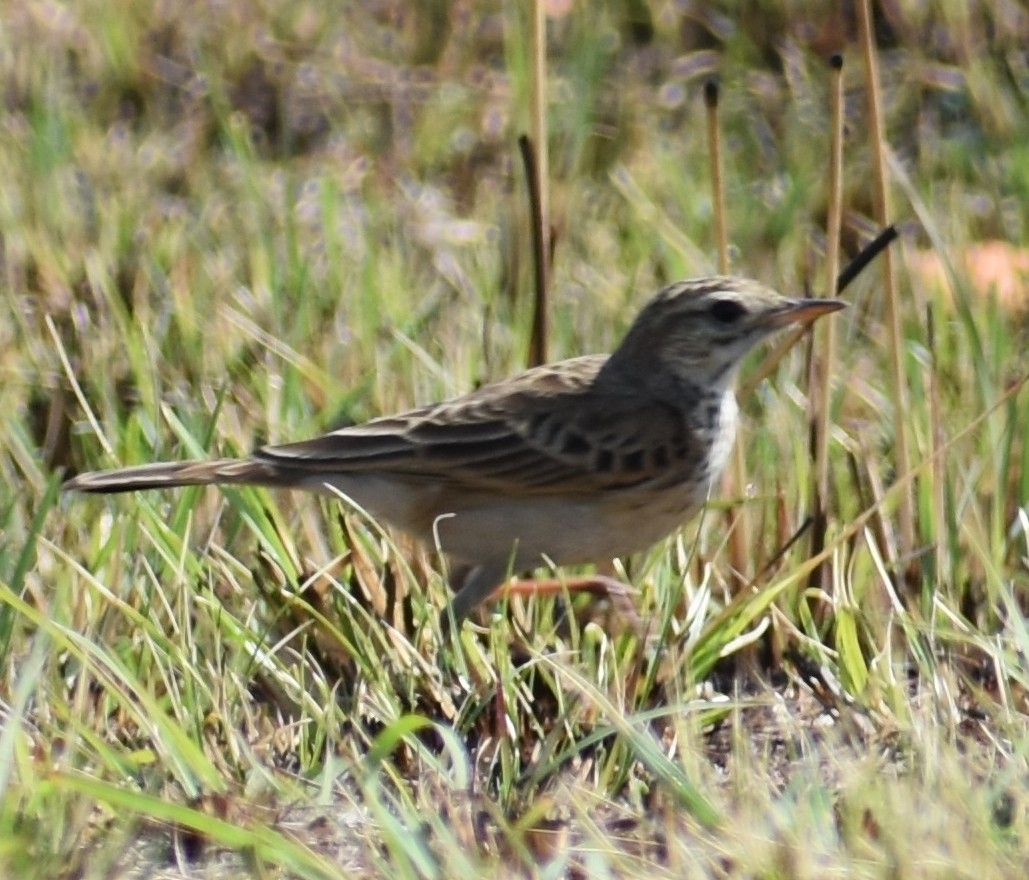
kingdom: Animalia
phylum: Chordata
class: Aves
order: Passeriformes
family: Motacillidae
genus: Anthus
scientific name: Anthus cinnamomeus
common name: African pipit
